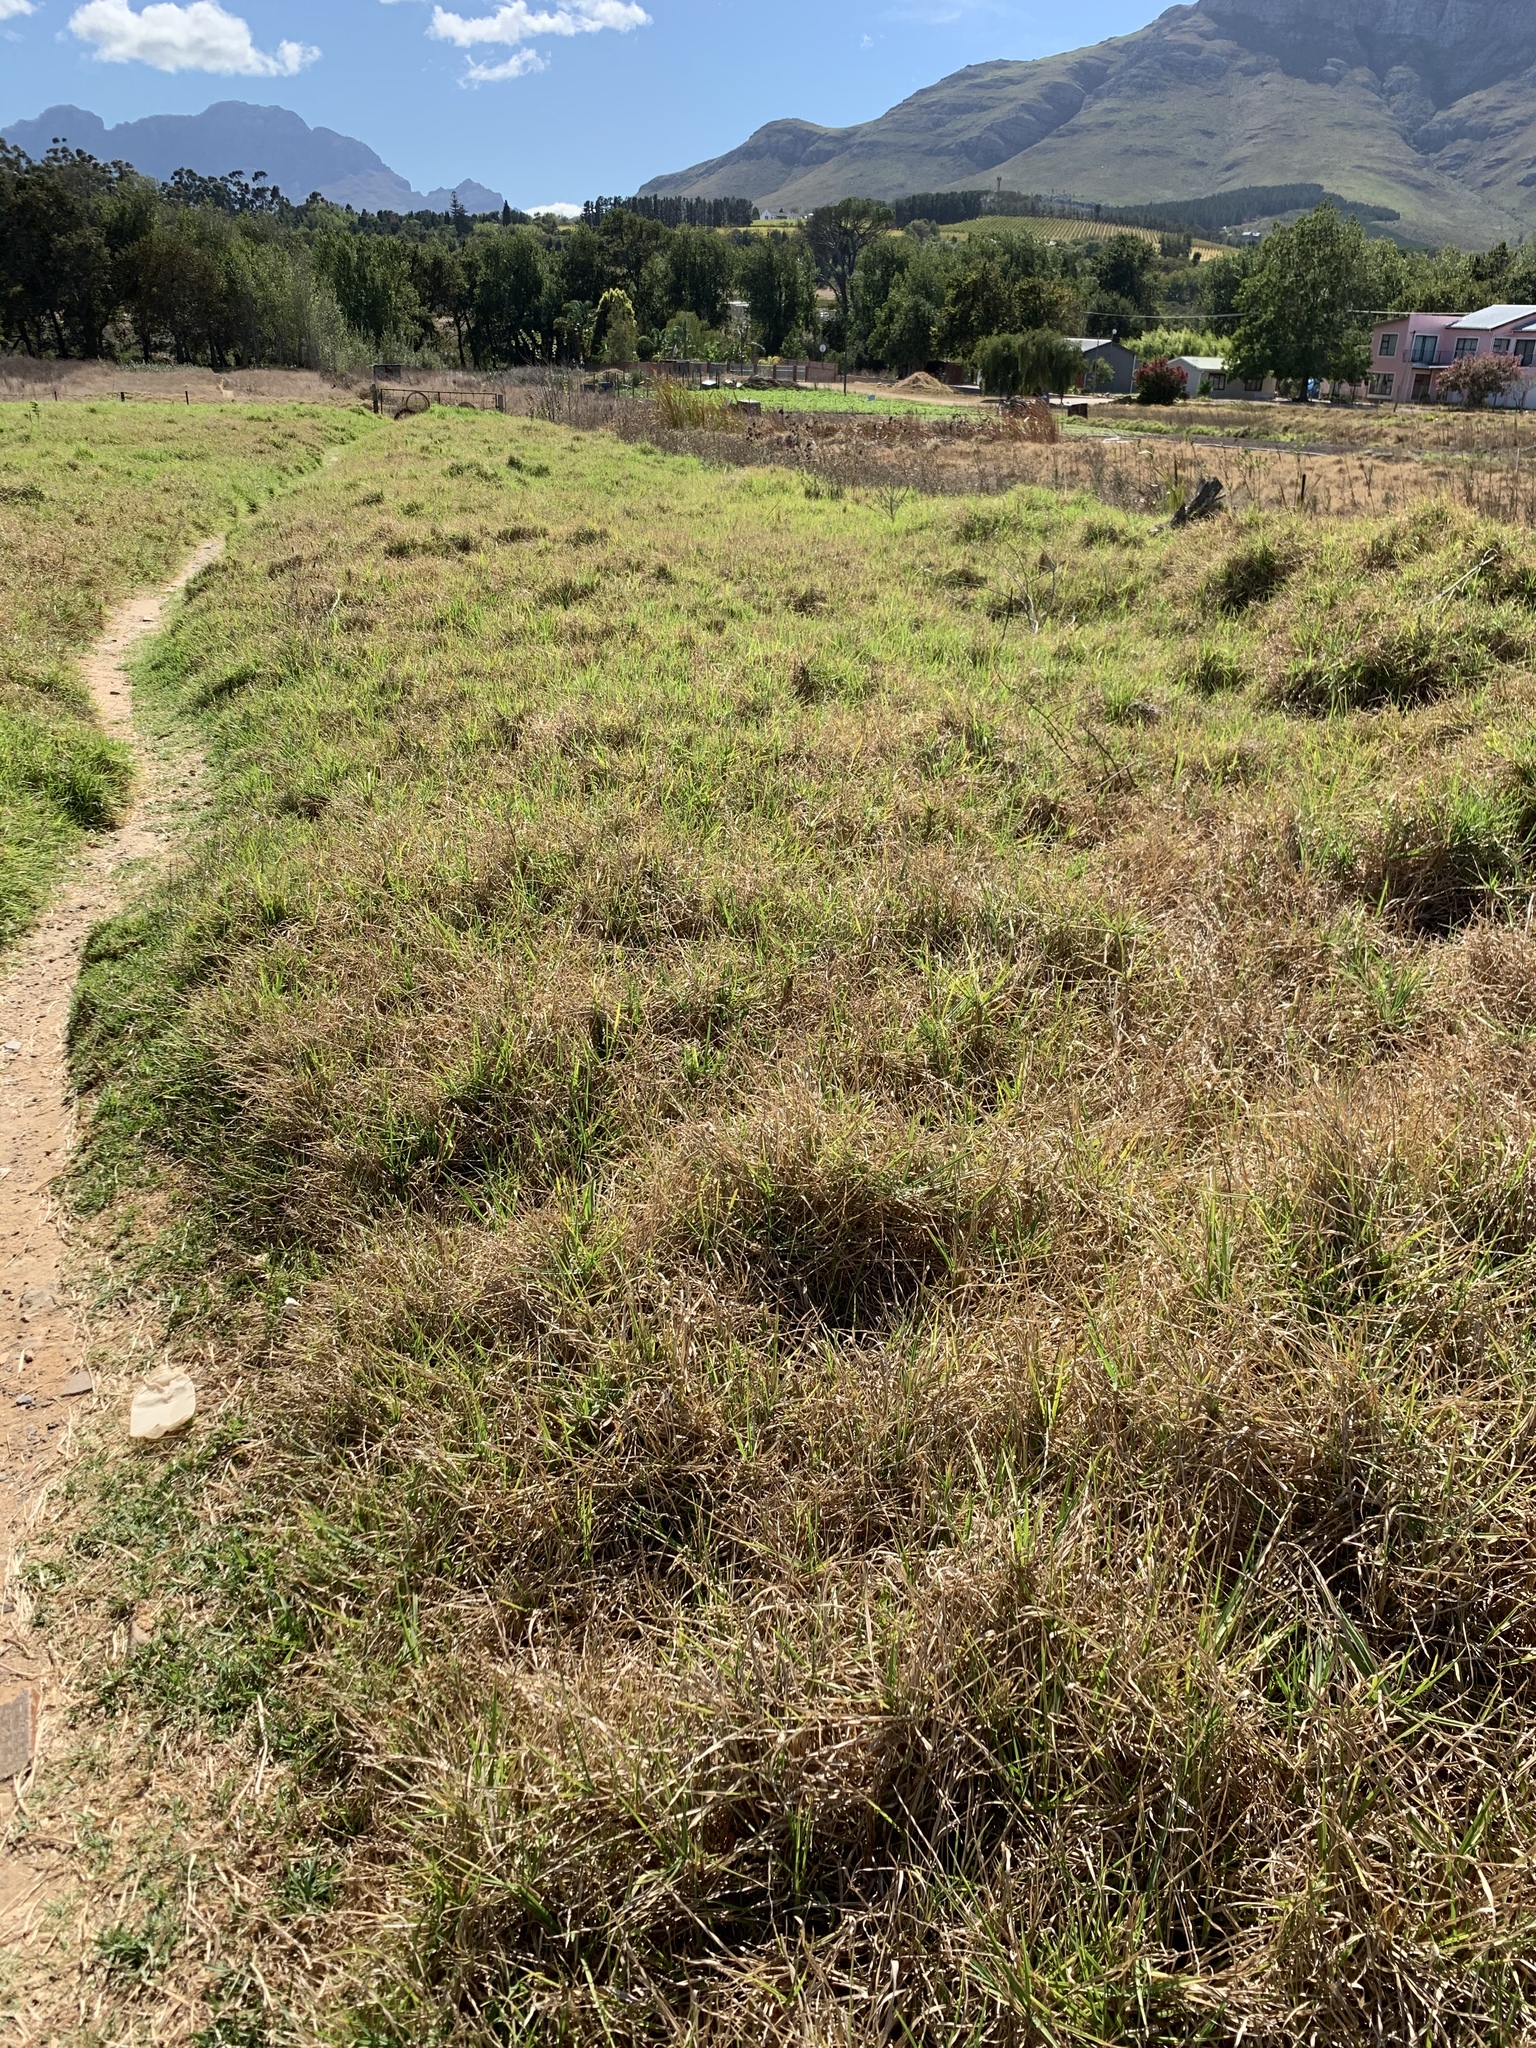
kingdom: Plantae
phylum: Tracheophyta
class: Liliopsida
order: Poales
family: Poaceae
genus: Cenchrus
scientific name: Cenchrus clandestinus
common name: Kikuyugrass
